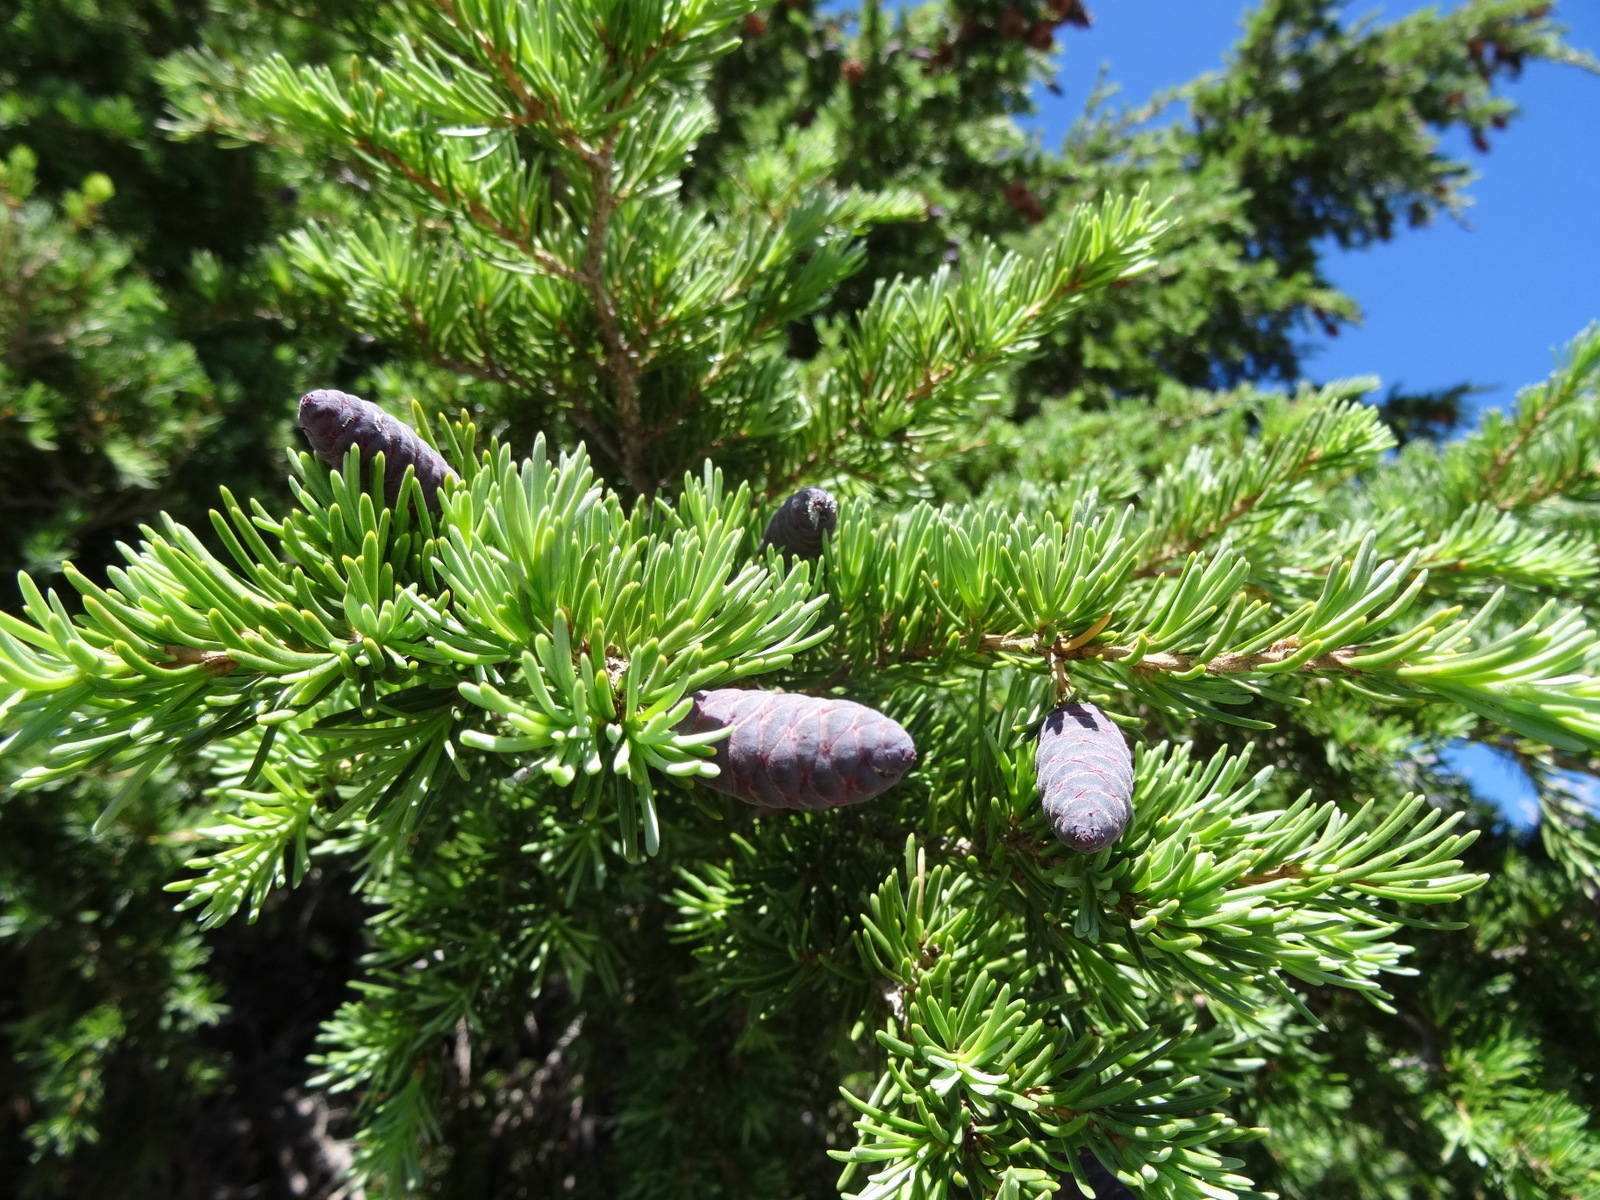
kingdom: Plantae
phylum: Tracheophyta
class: Pinopsida
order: Pinales
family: Pinaceae
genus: Tsuga
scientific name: Tsuga mertensiana
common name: Mountain hemlock
